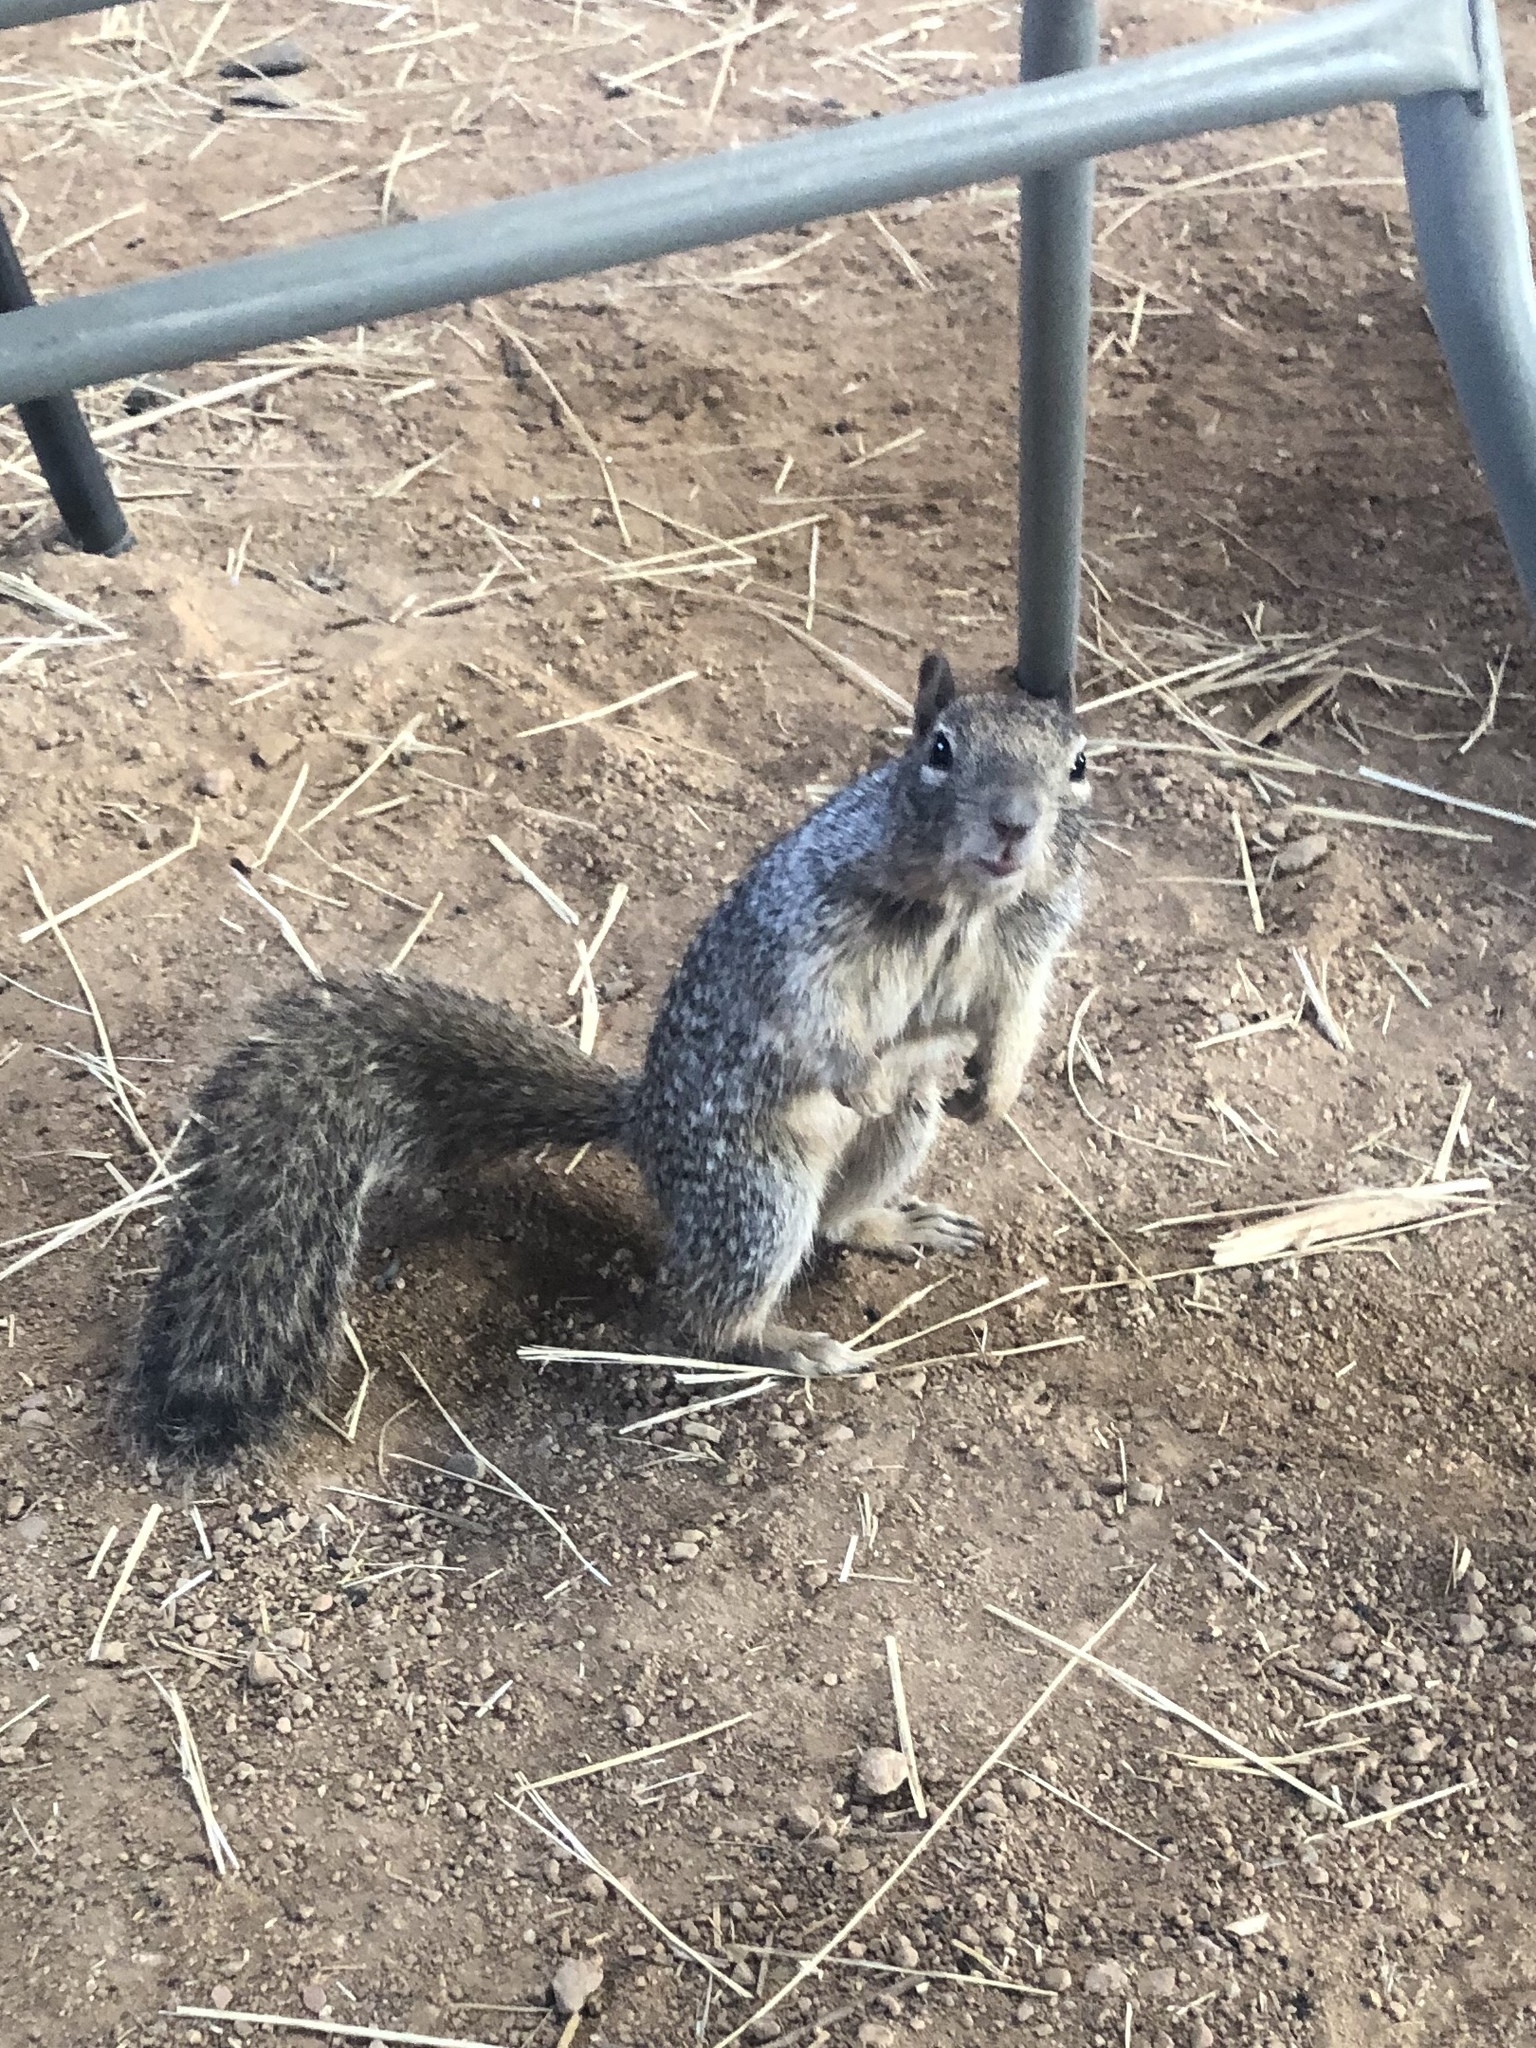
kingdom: Animalia
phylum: Chordata
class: Mammalia
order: Rodentia
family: Sciuridae
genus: Otospermophilus
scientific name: Otospermophilus variegatus
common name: Rock squirrel
